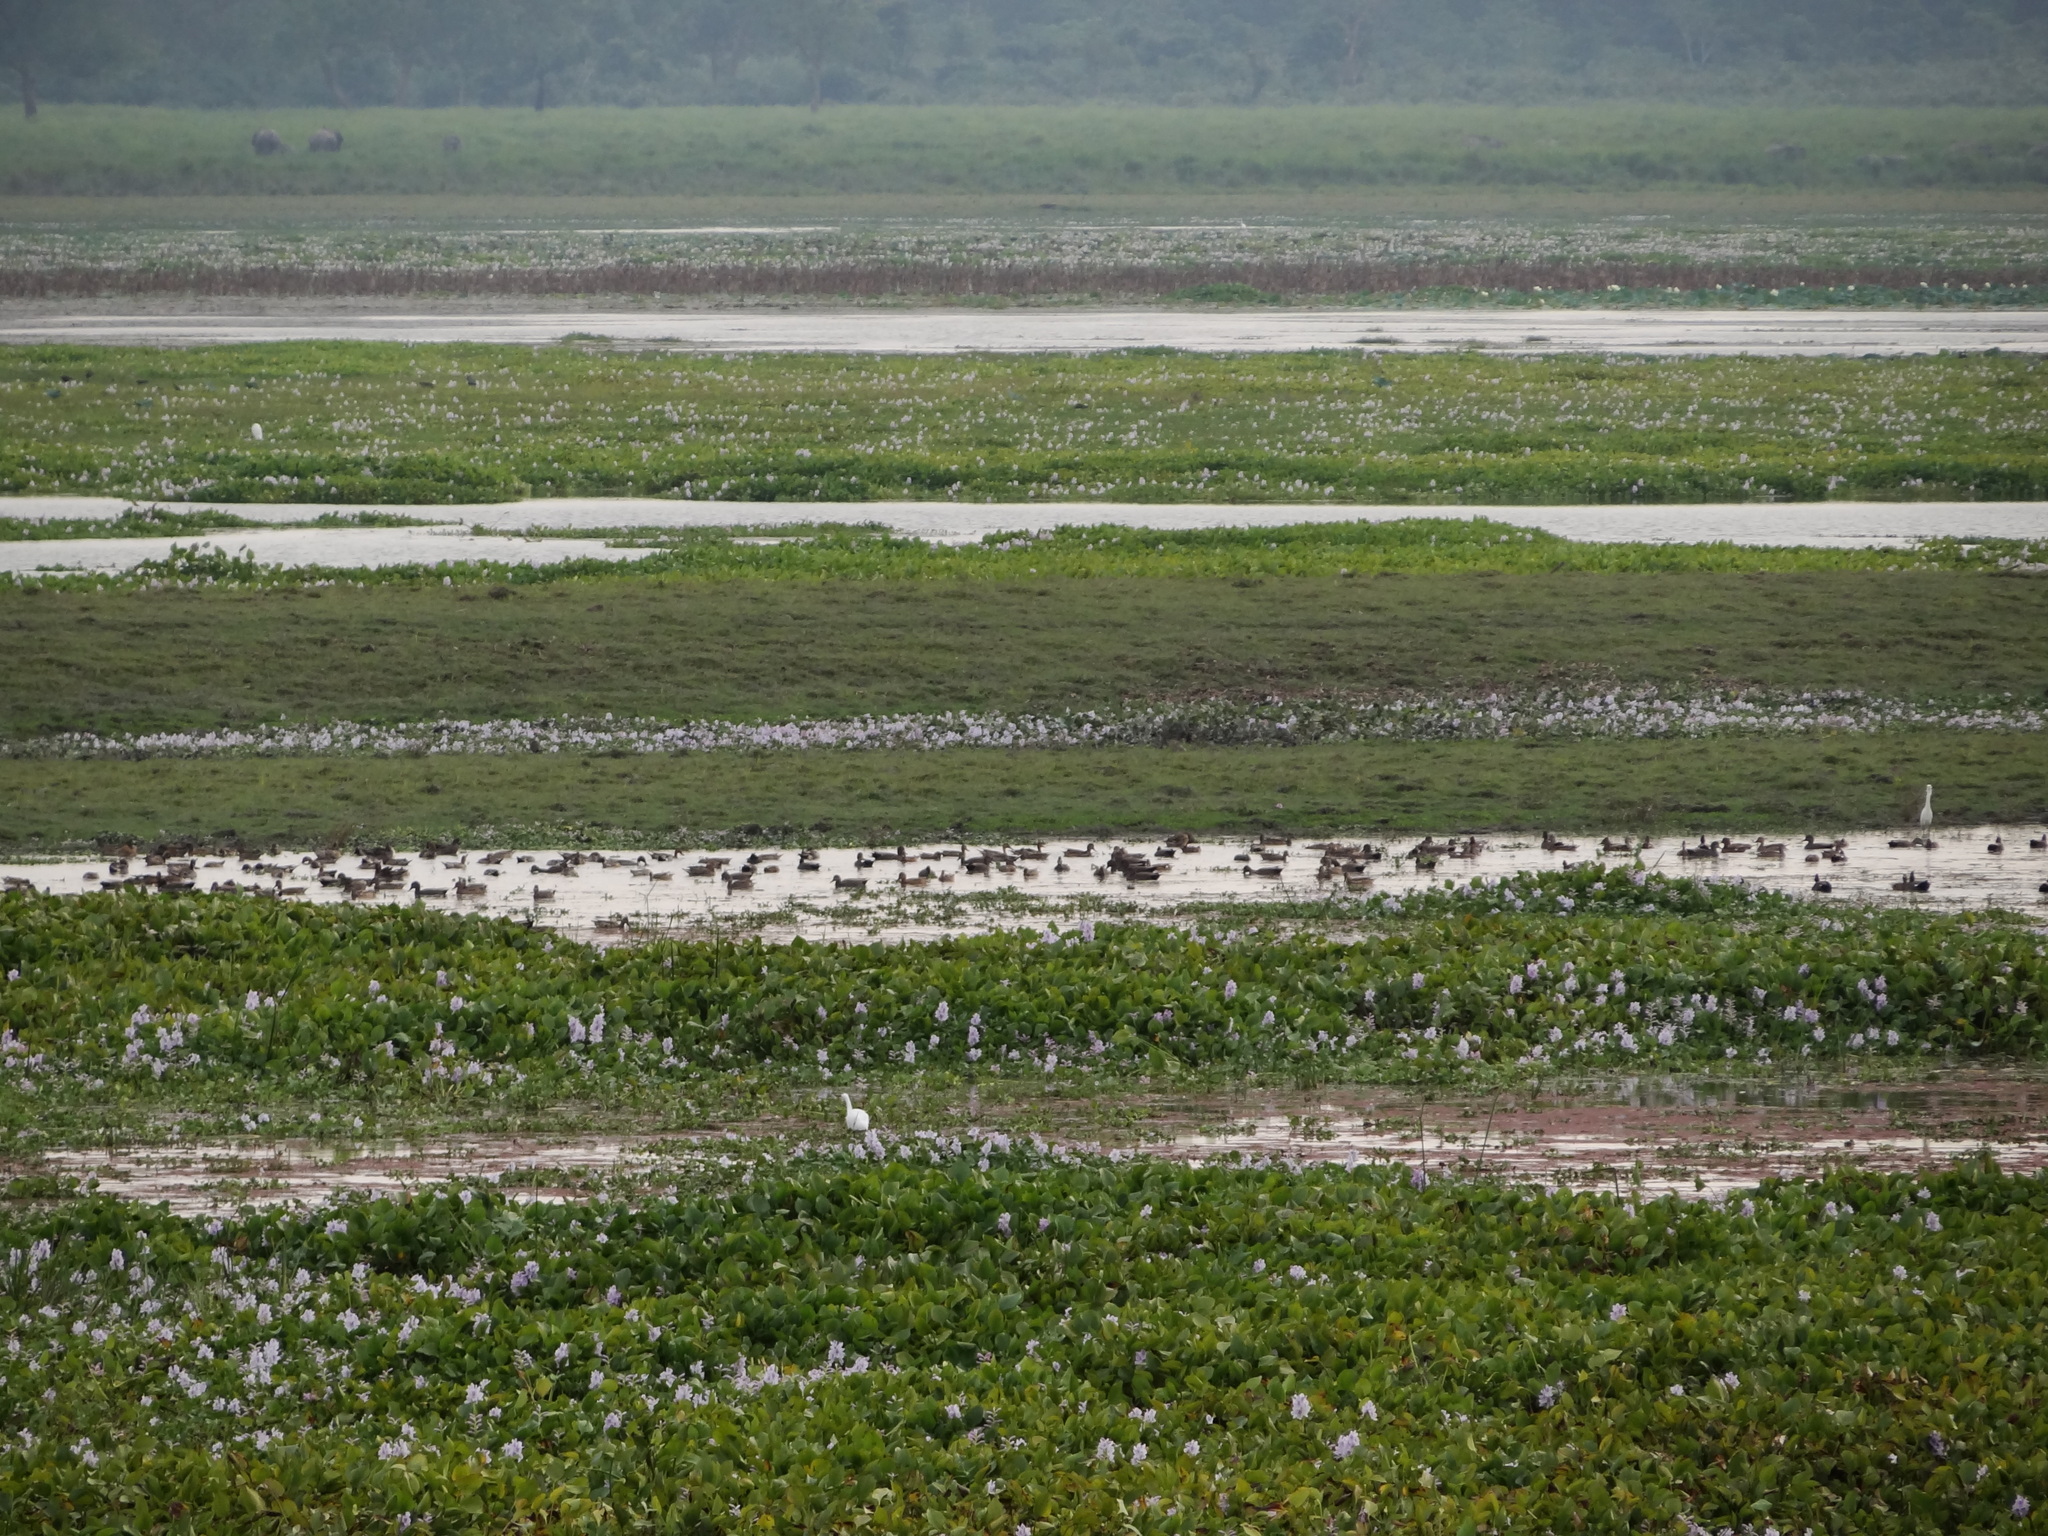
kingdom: Animalia
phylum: Chordata
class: Aves
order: Anseriformes
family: Anatidae
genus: Mareca
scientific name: Mareca strepera
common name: Gadwall
